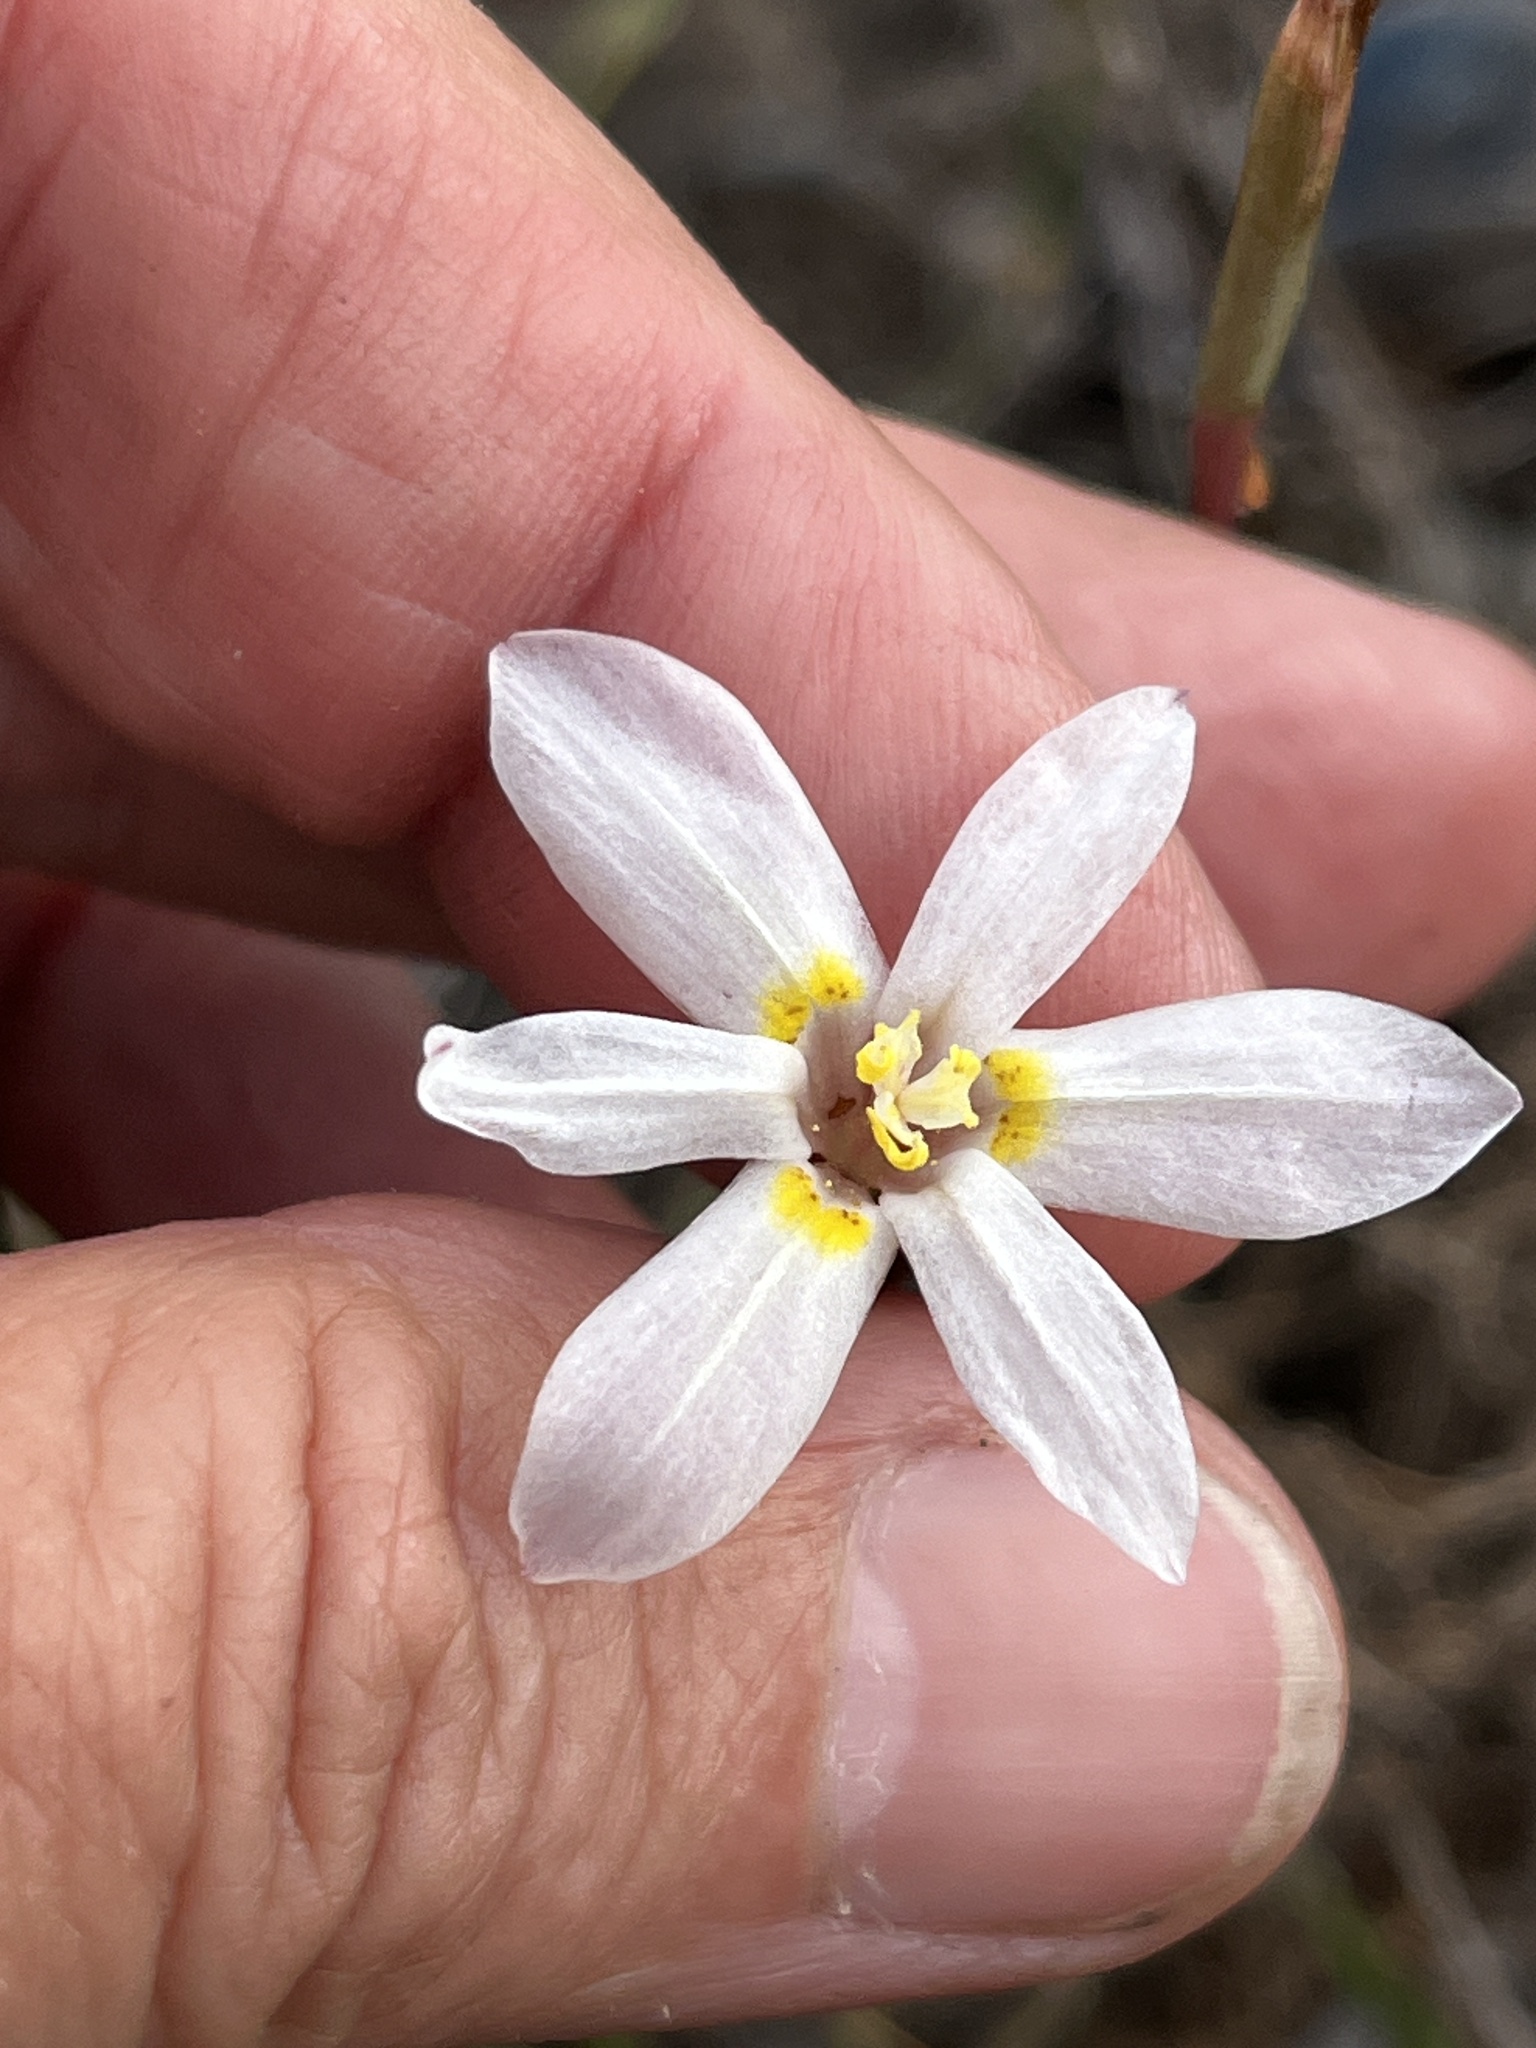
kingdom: Plantae
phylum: Tracheophyta
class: Liliopsida
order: Asparagales
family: Iridaceae
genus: Moraea
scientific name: Moraea elsiae
